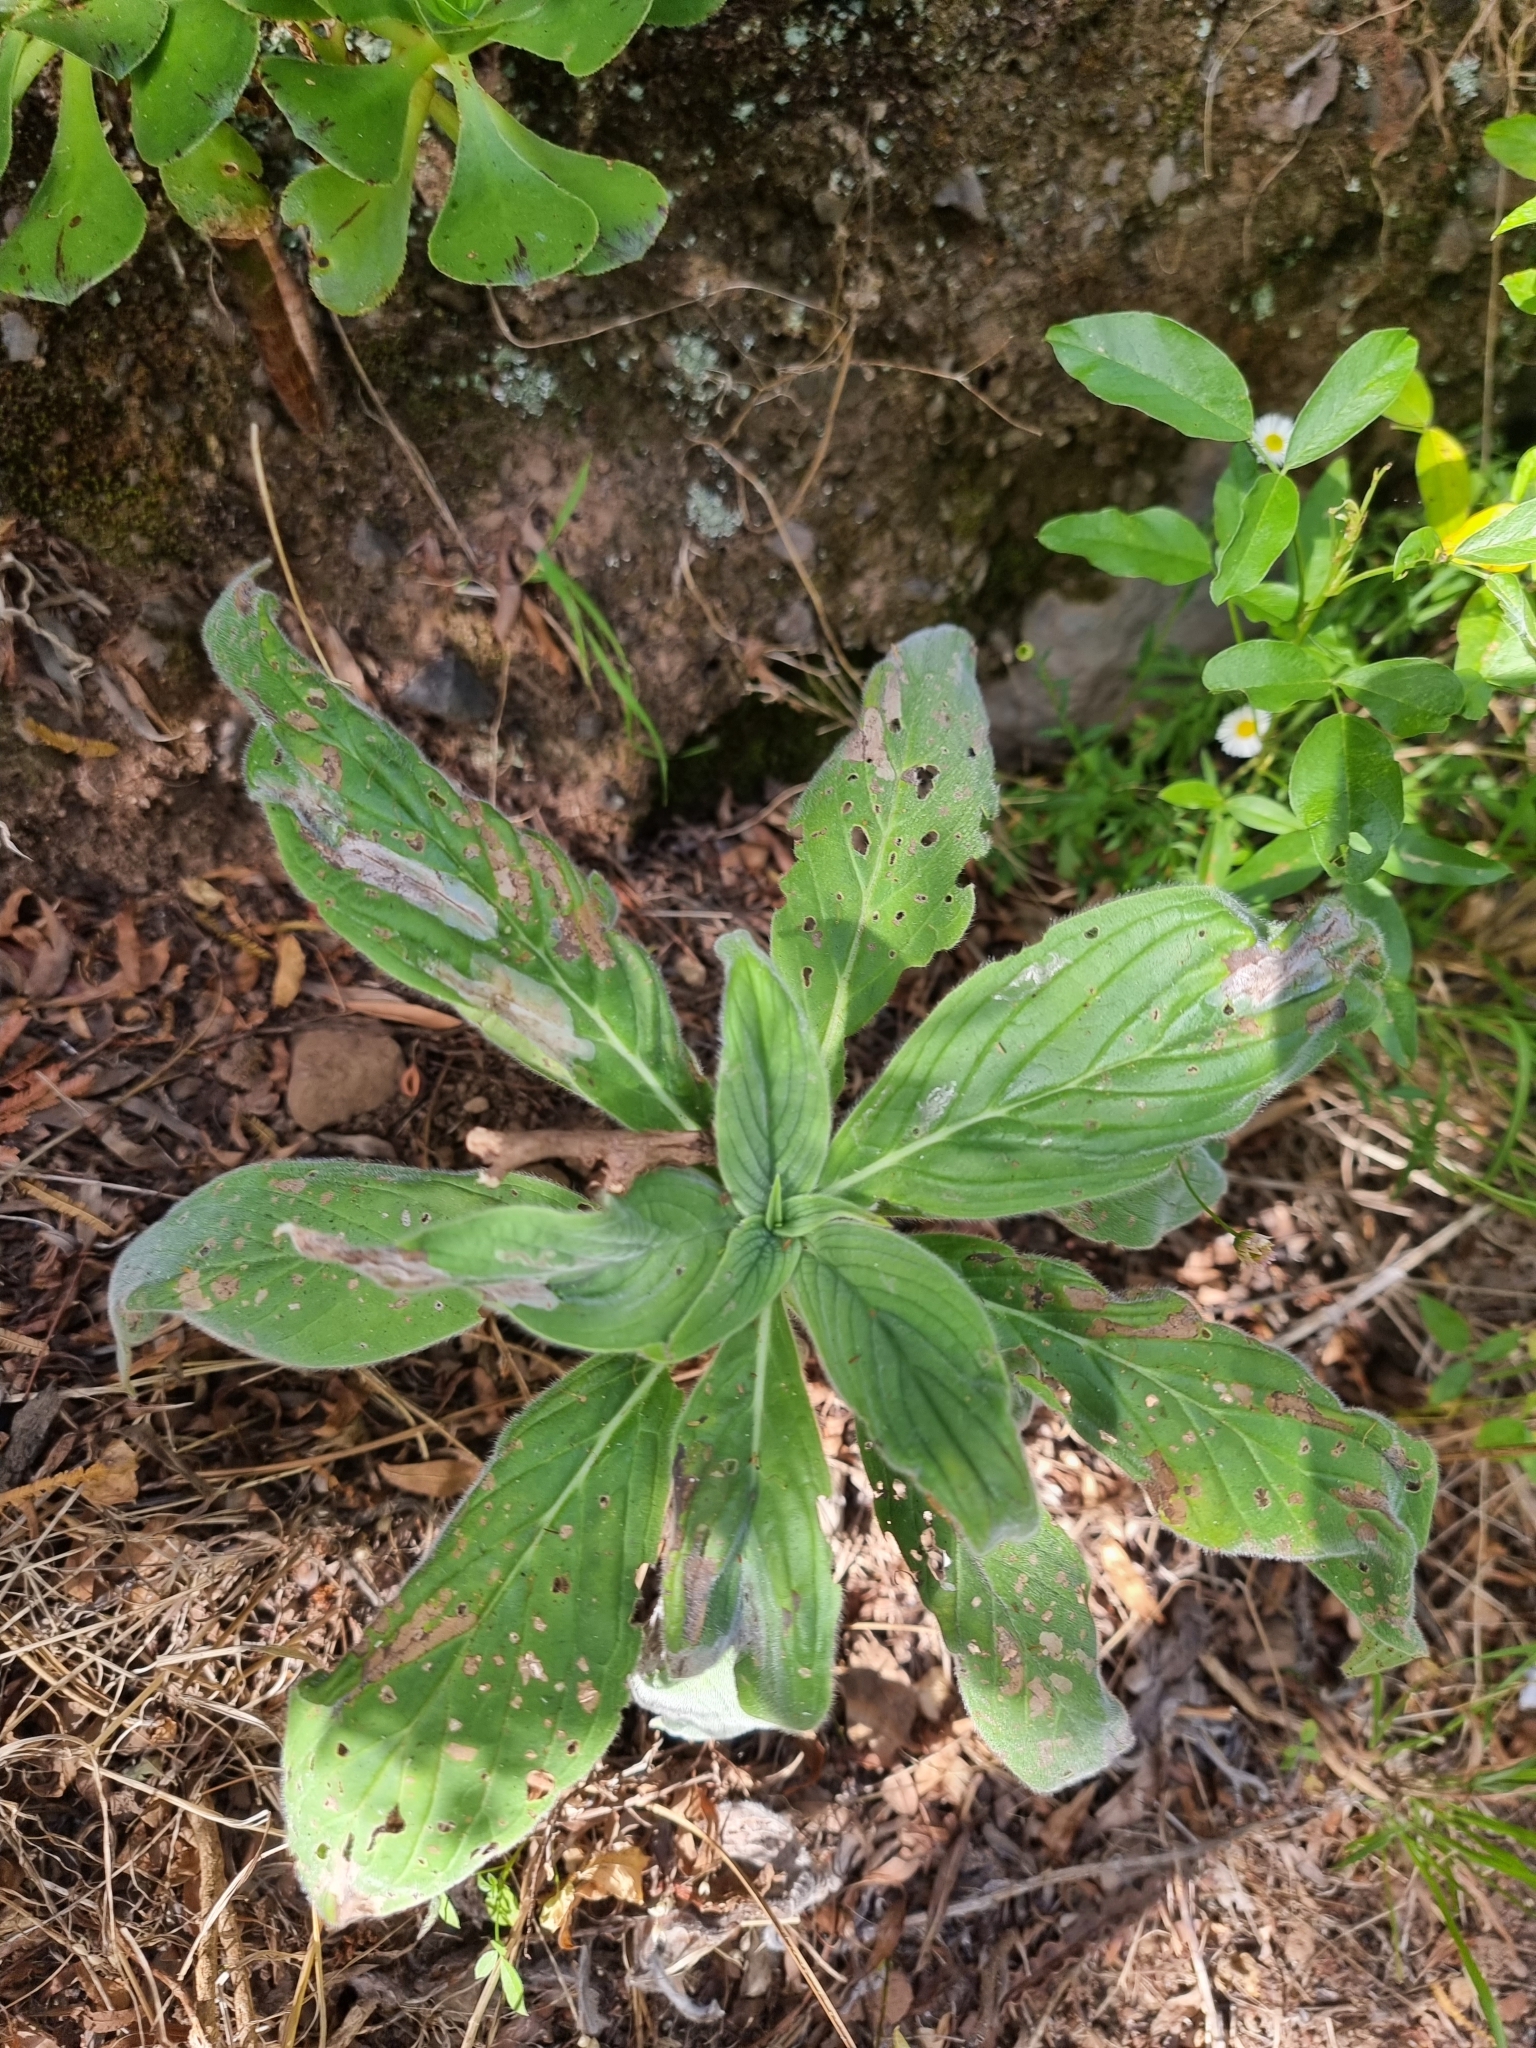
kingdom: Plantae
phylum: Tracheophyta
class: Magnoliopsida
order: Boraginales
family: Boraginaceae
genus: Echium
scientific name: Echium candicans
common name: Pride of madeira
